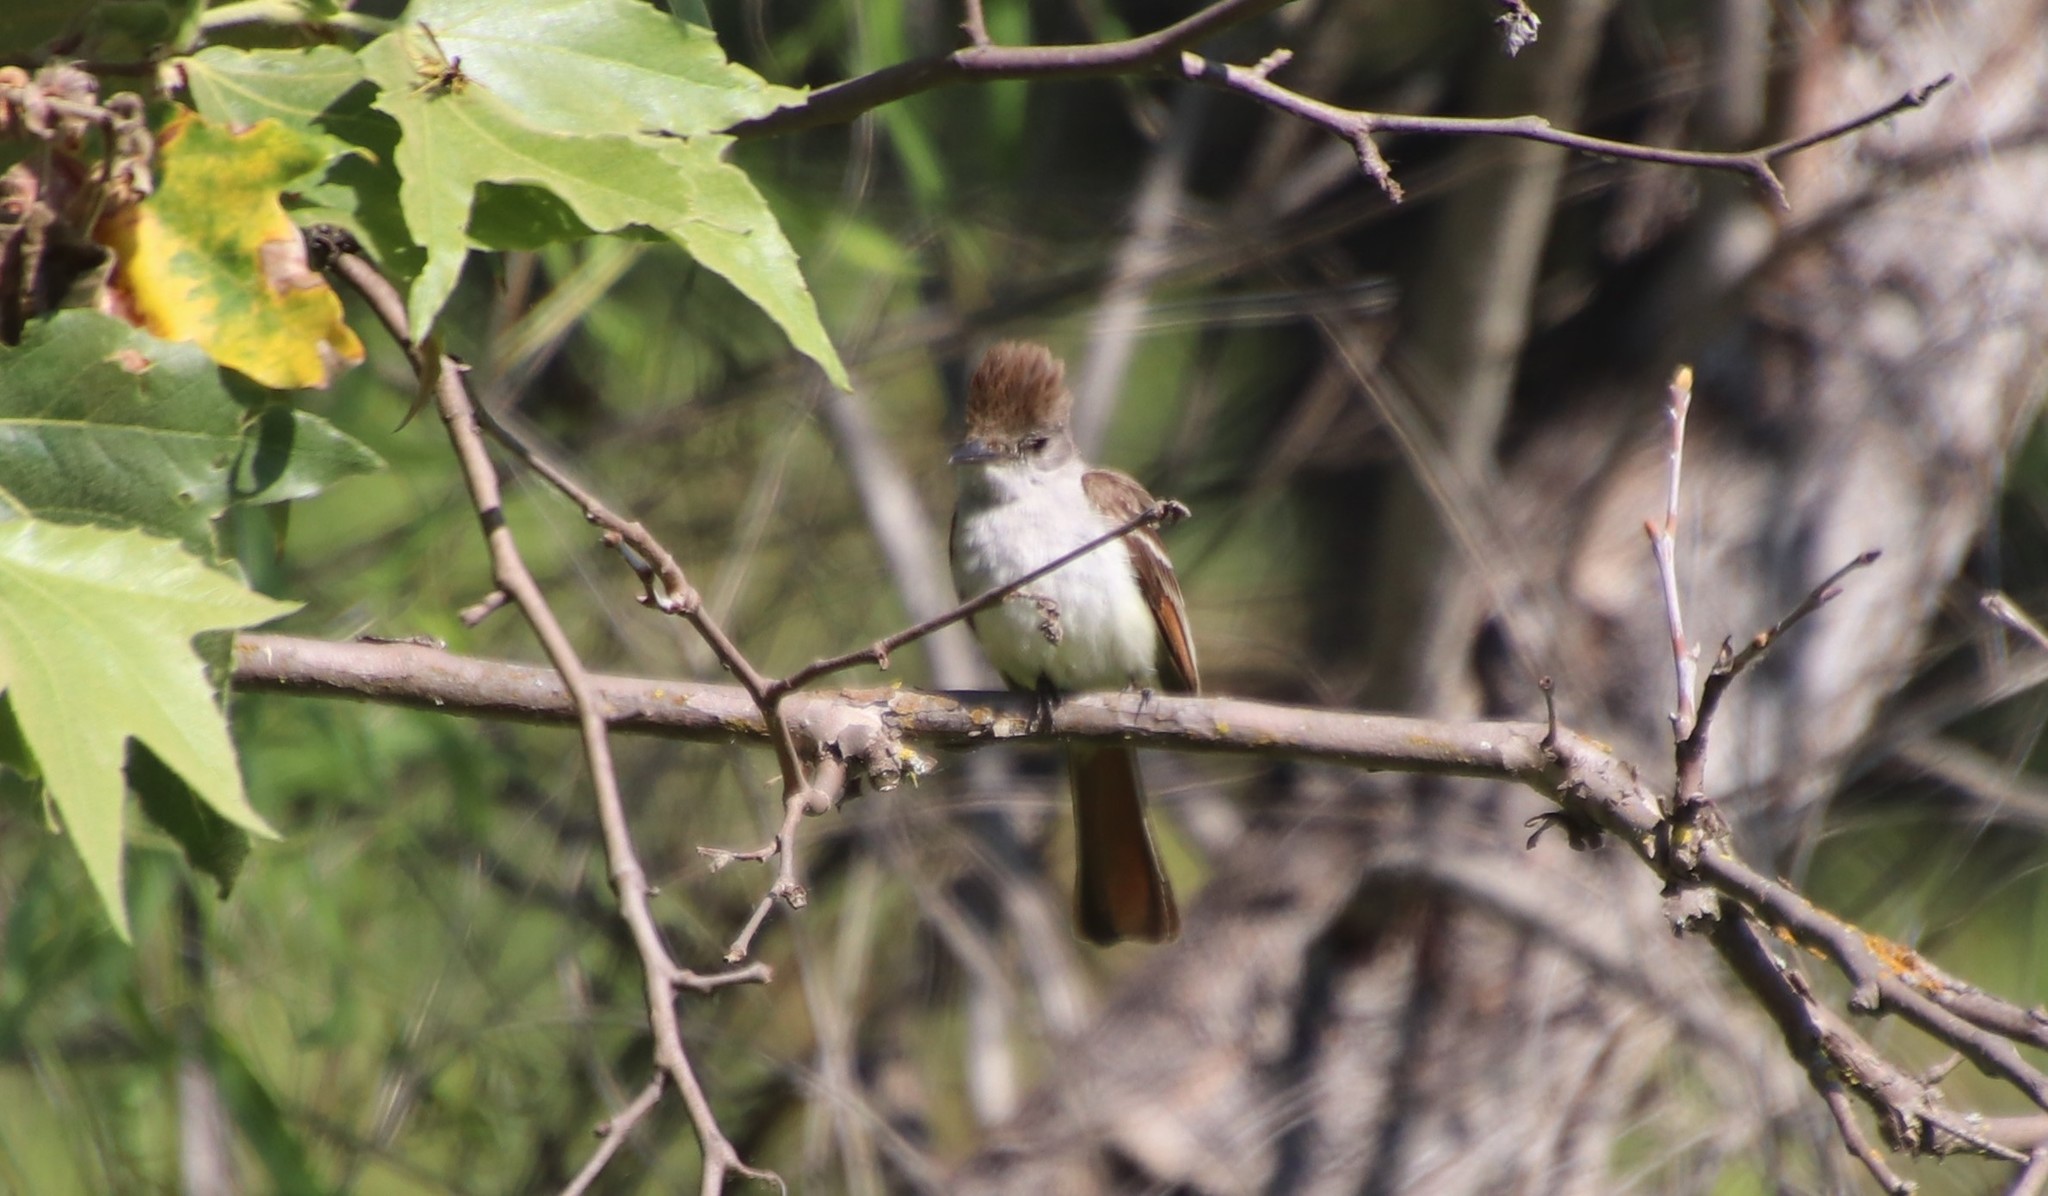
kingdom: Animalia
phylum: Chordata
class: Aves
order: Passeriformes
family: Tyrannidae
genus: Myiarchus
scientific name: Myiarchus cinerascens
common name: Ash-throated flycatcher
